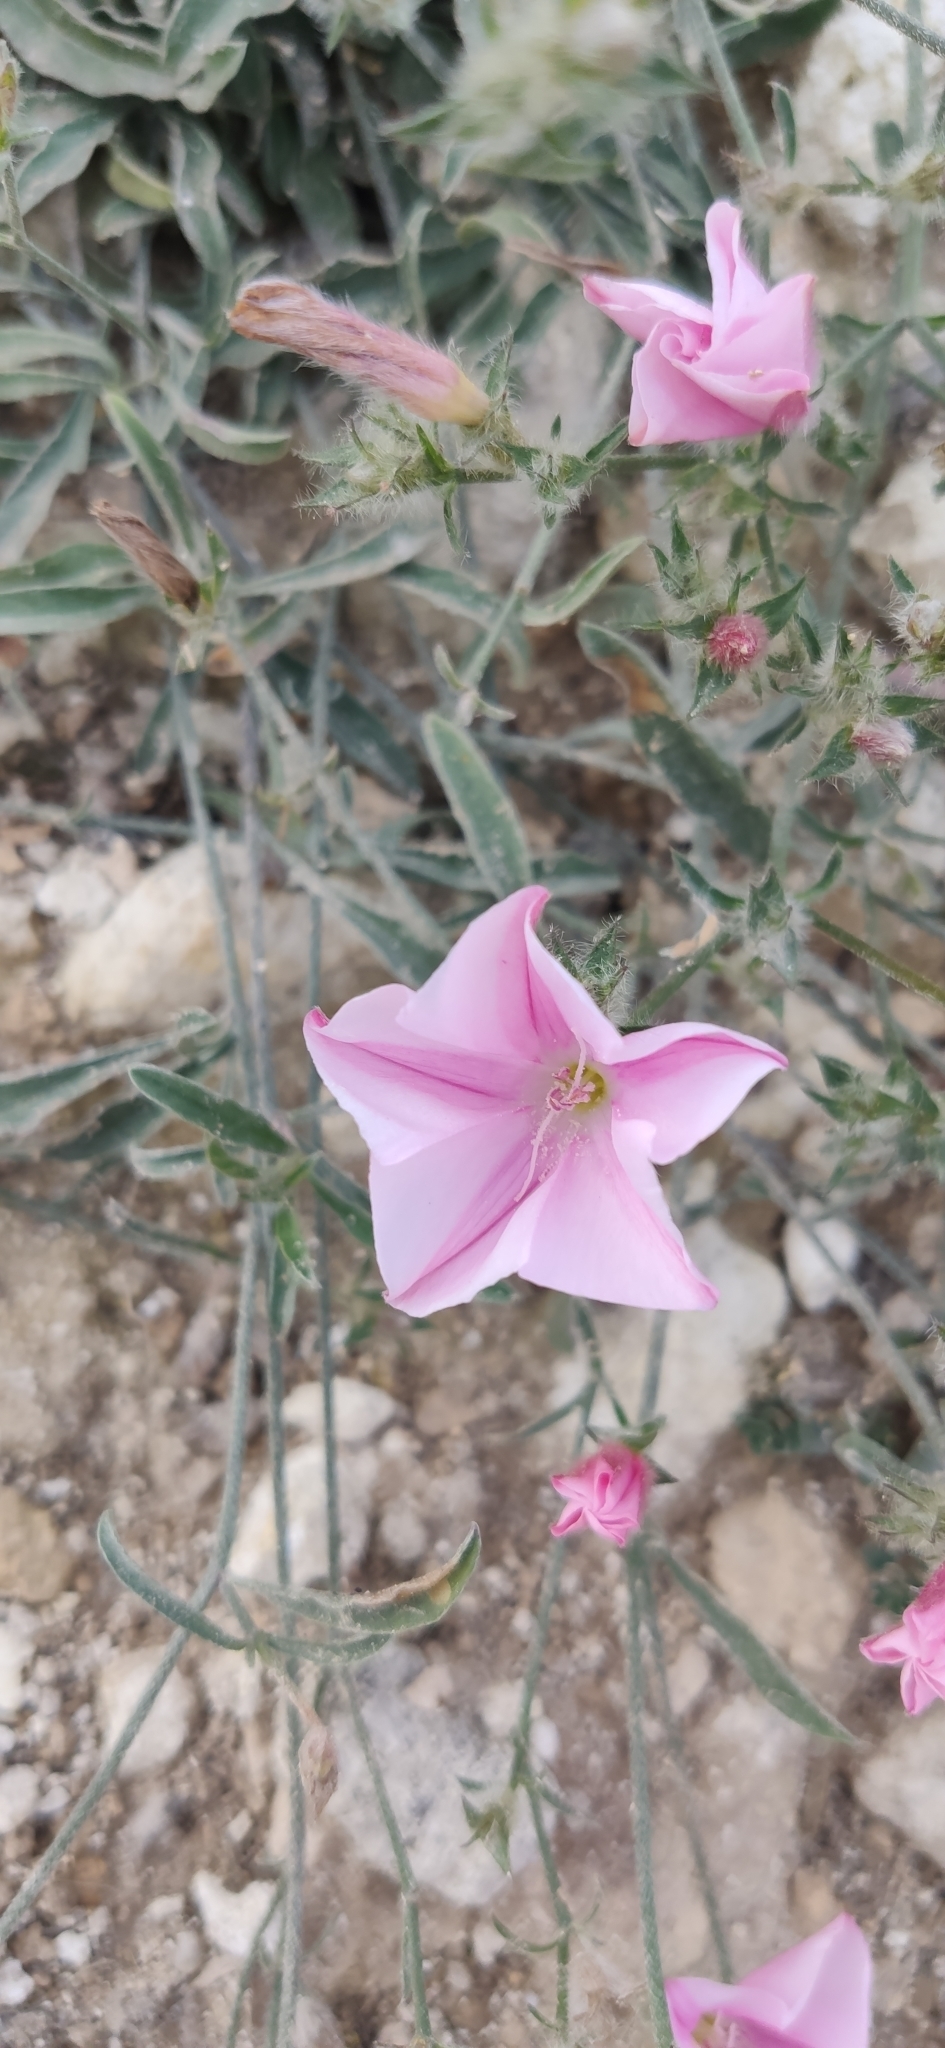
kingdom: Plantae
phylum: Tracheophyta
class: Magnoliopsida
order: Solanales
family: Convolvulaceae
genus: Convolvulus
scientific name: Convolvulus cantabrica
